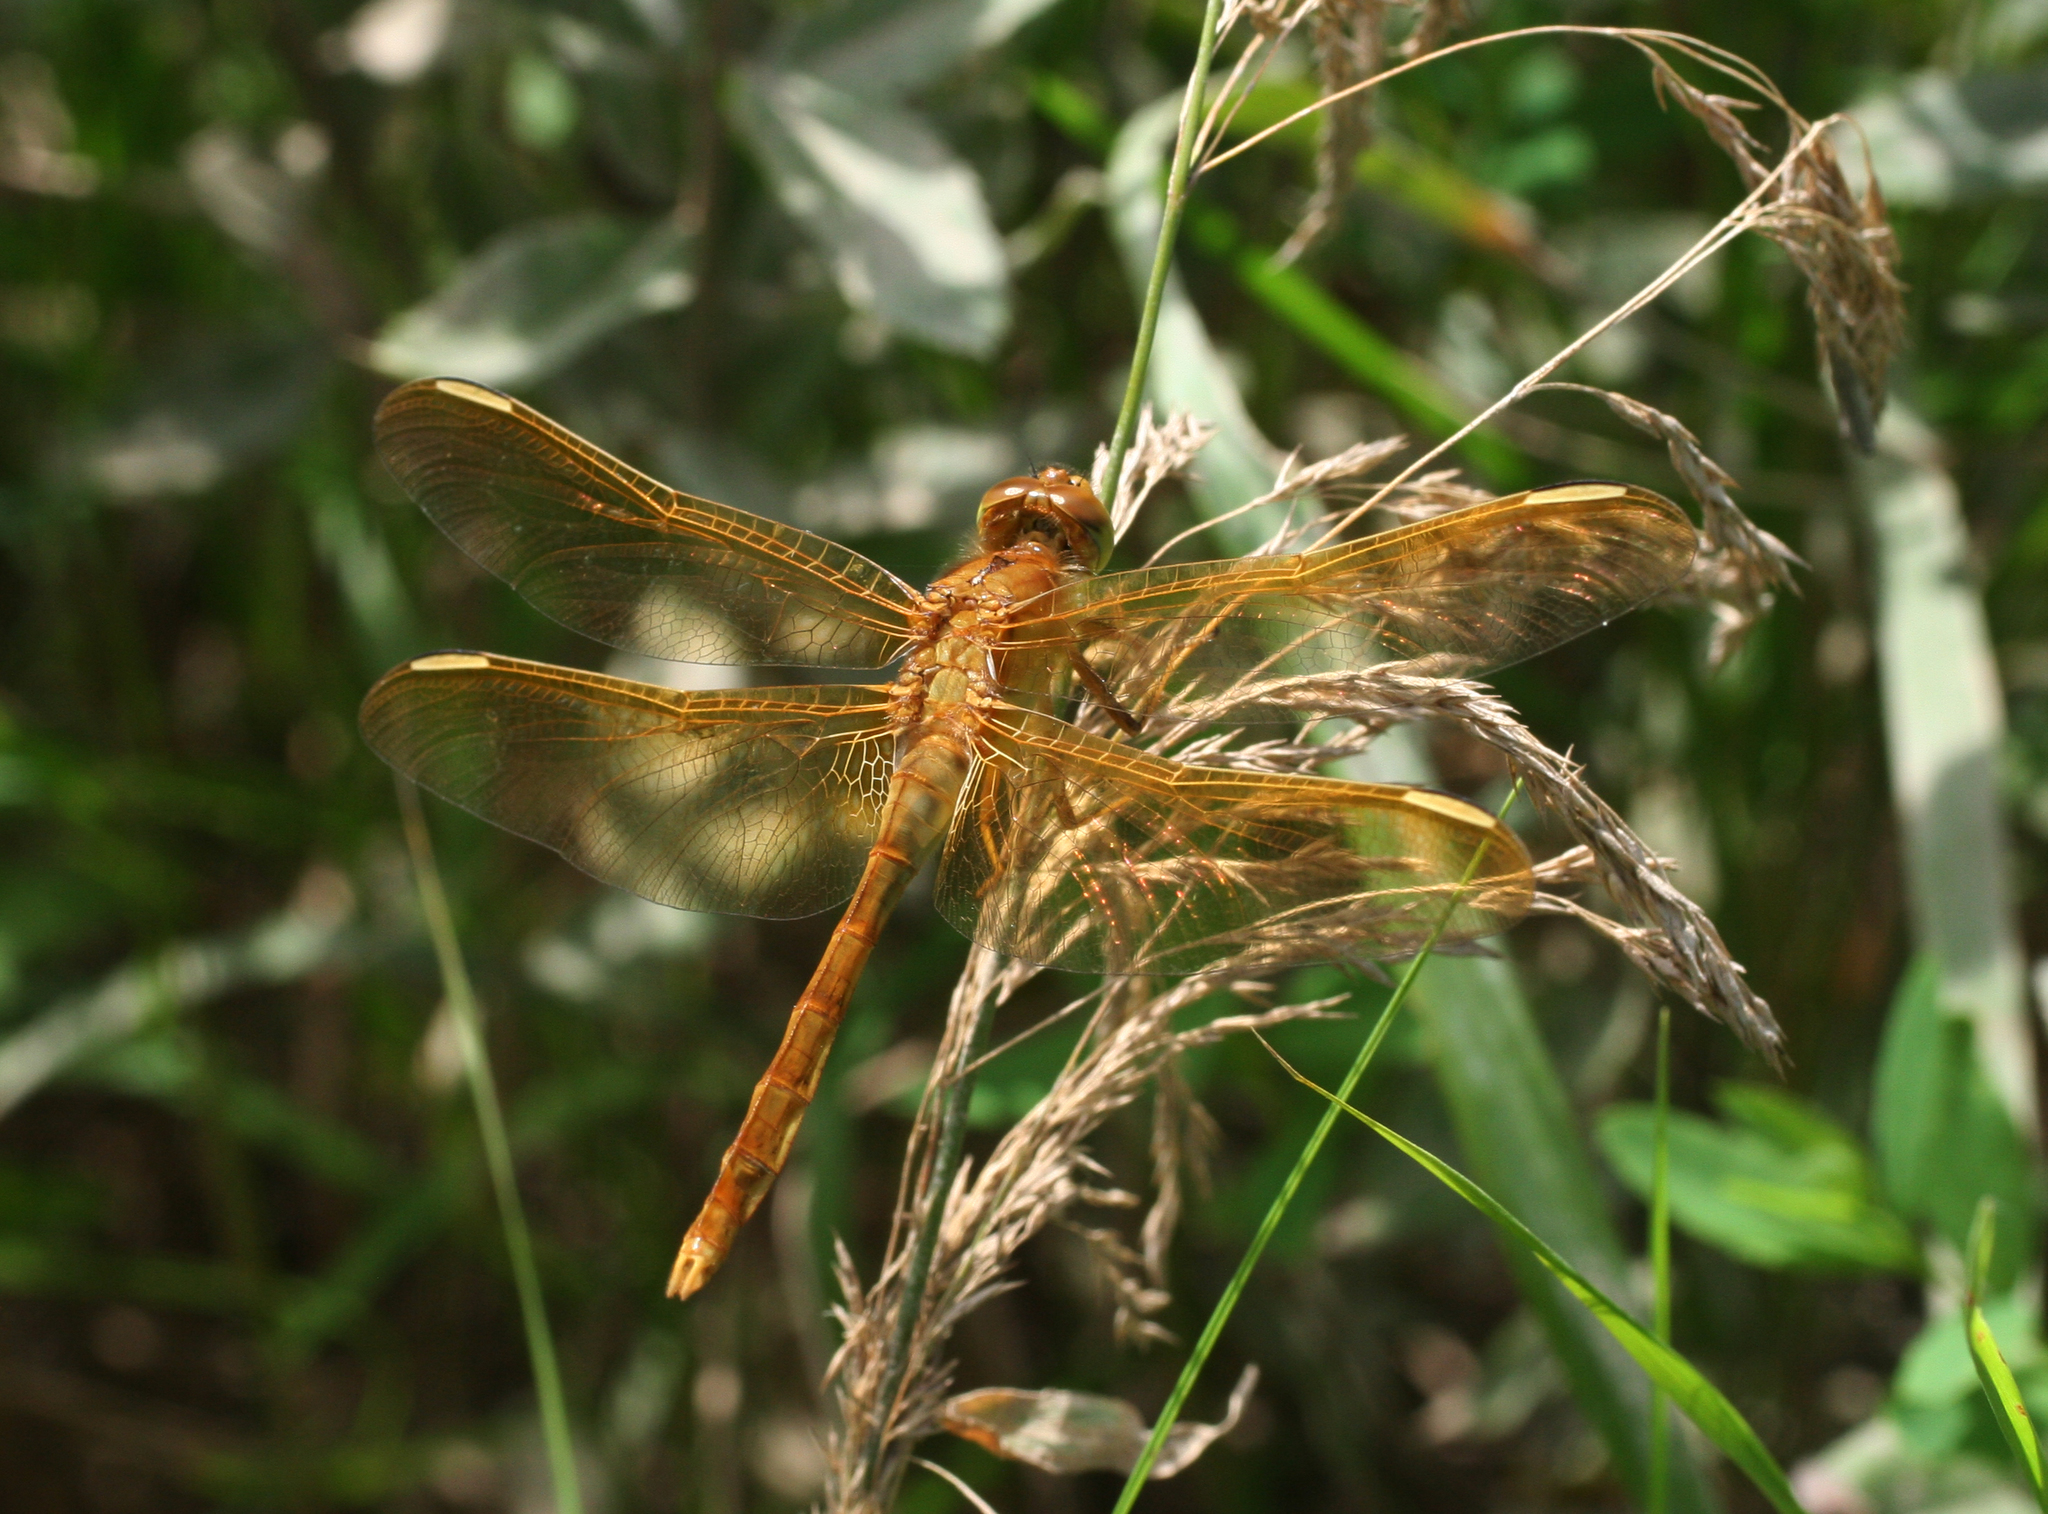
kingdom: Animalia
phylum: Arthropoda
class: Insecta
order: Odonata
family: Libellulidae
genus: Sympetrum
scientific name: Sympetrum uniforme
